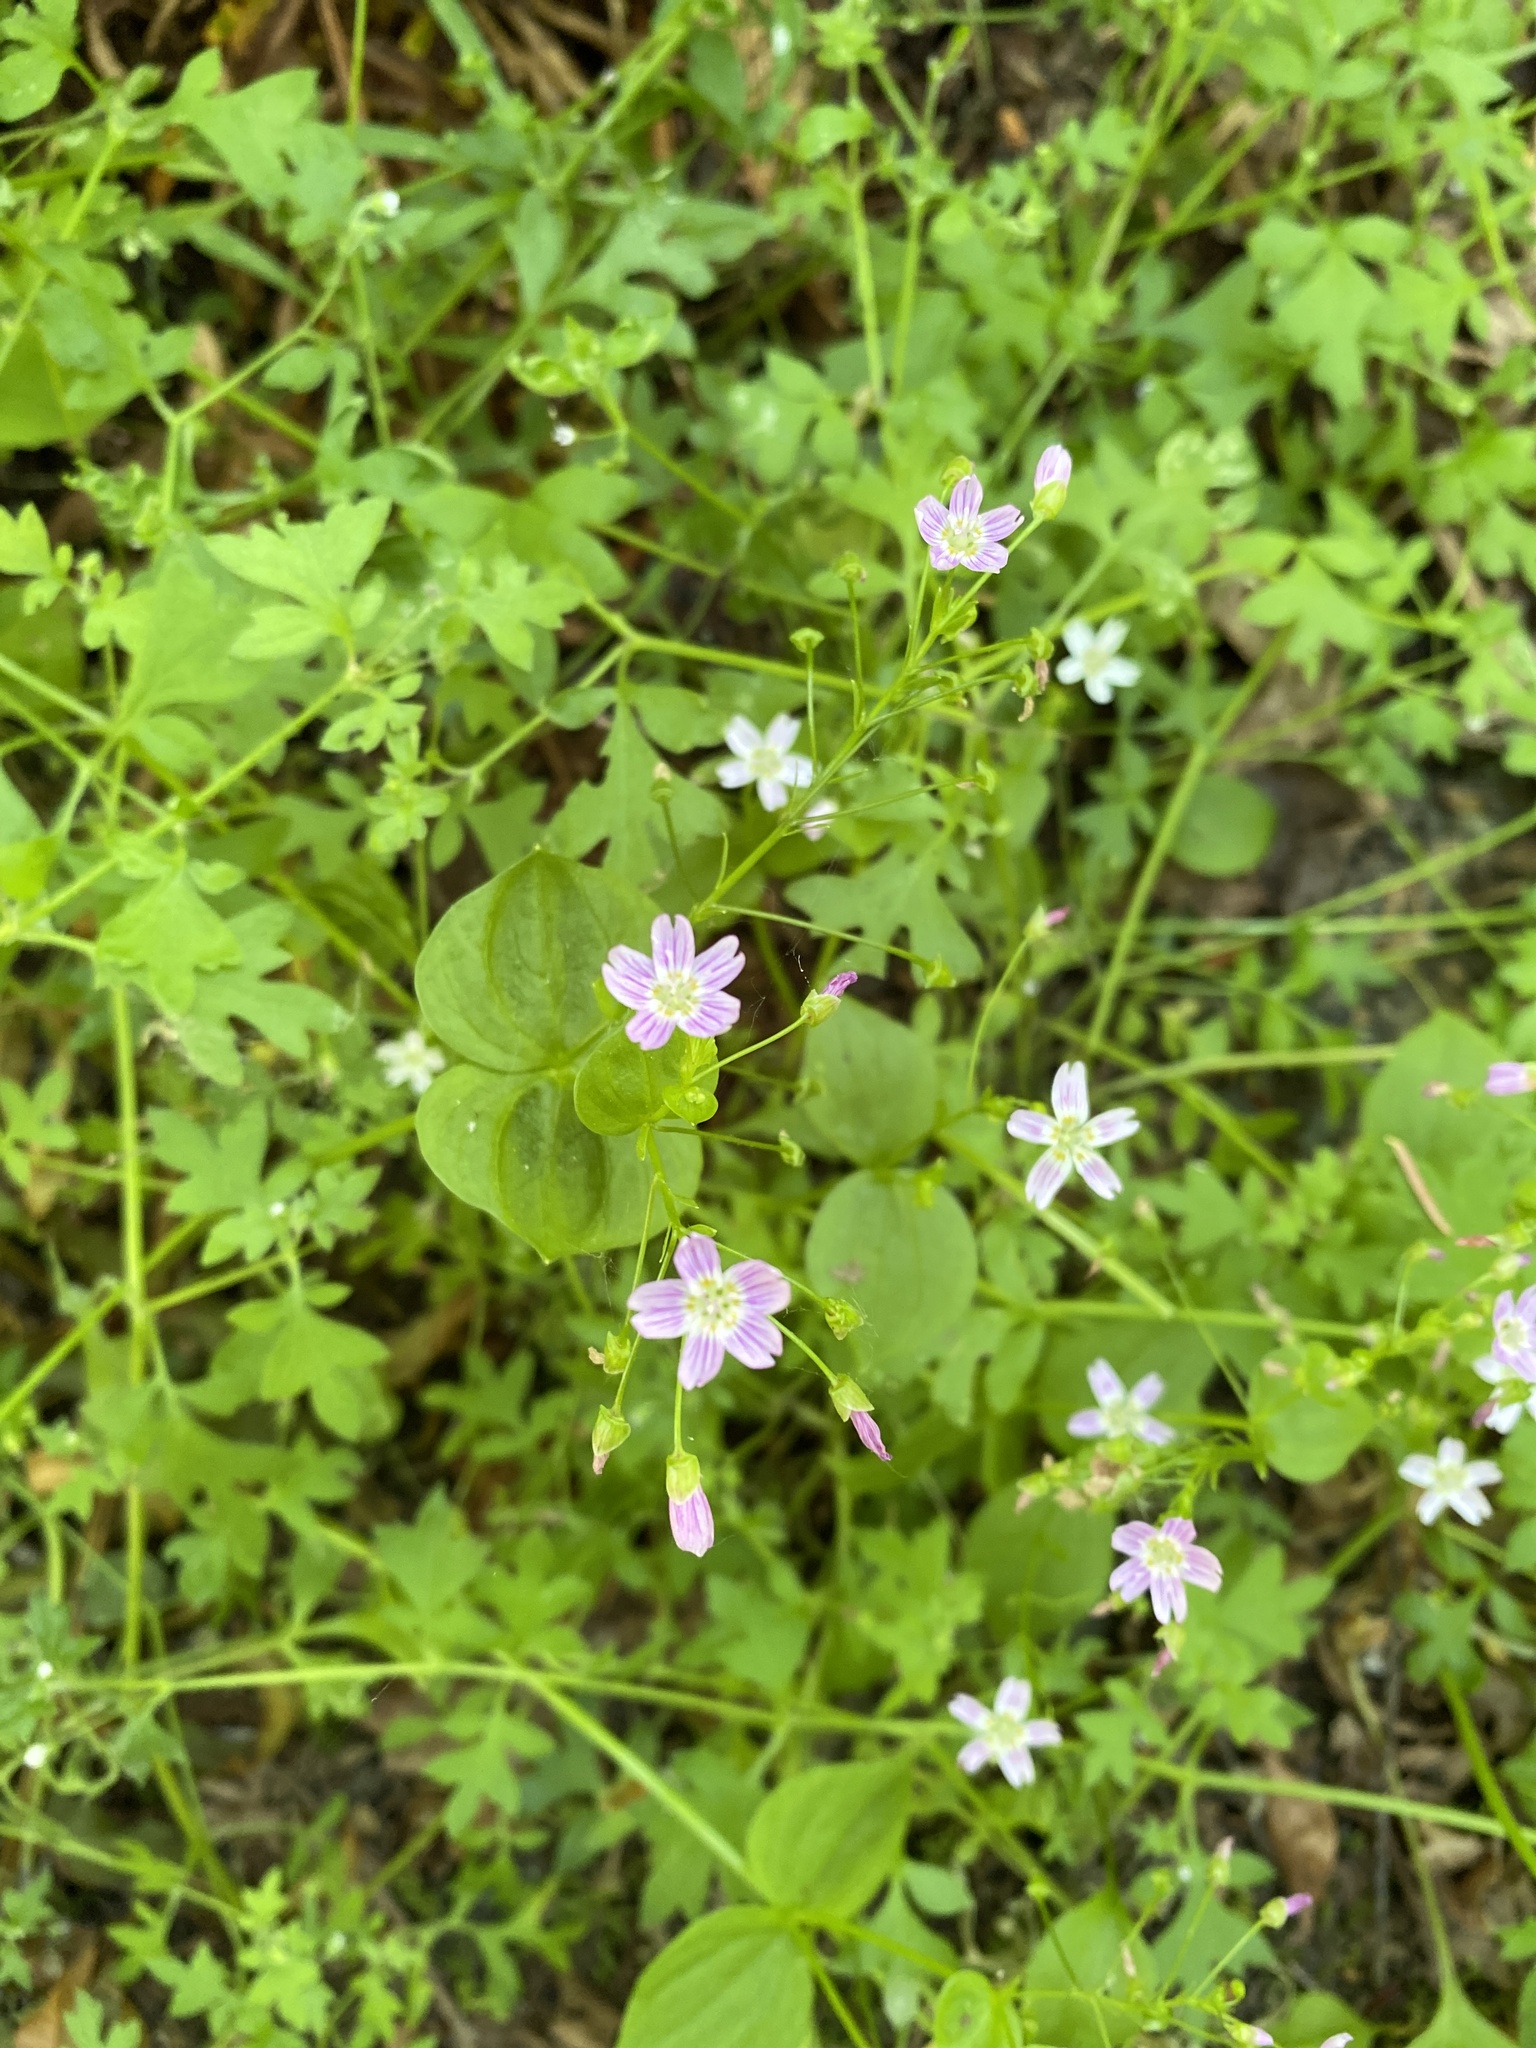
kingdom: Plantae
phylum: Tracheophyta
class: Magnoliopsida
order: Caryophyllales
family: Montiaceae
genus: Claytonia
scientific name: Claytonia sibirica
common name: Pink purslane
